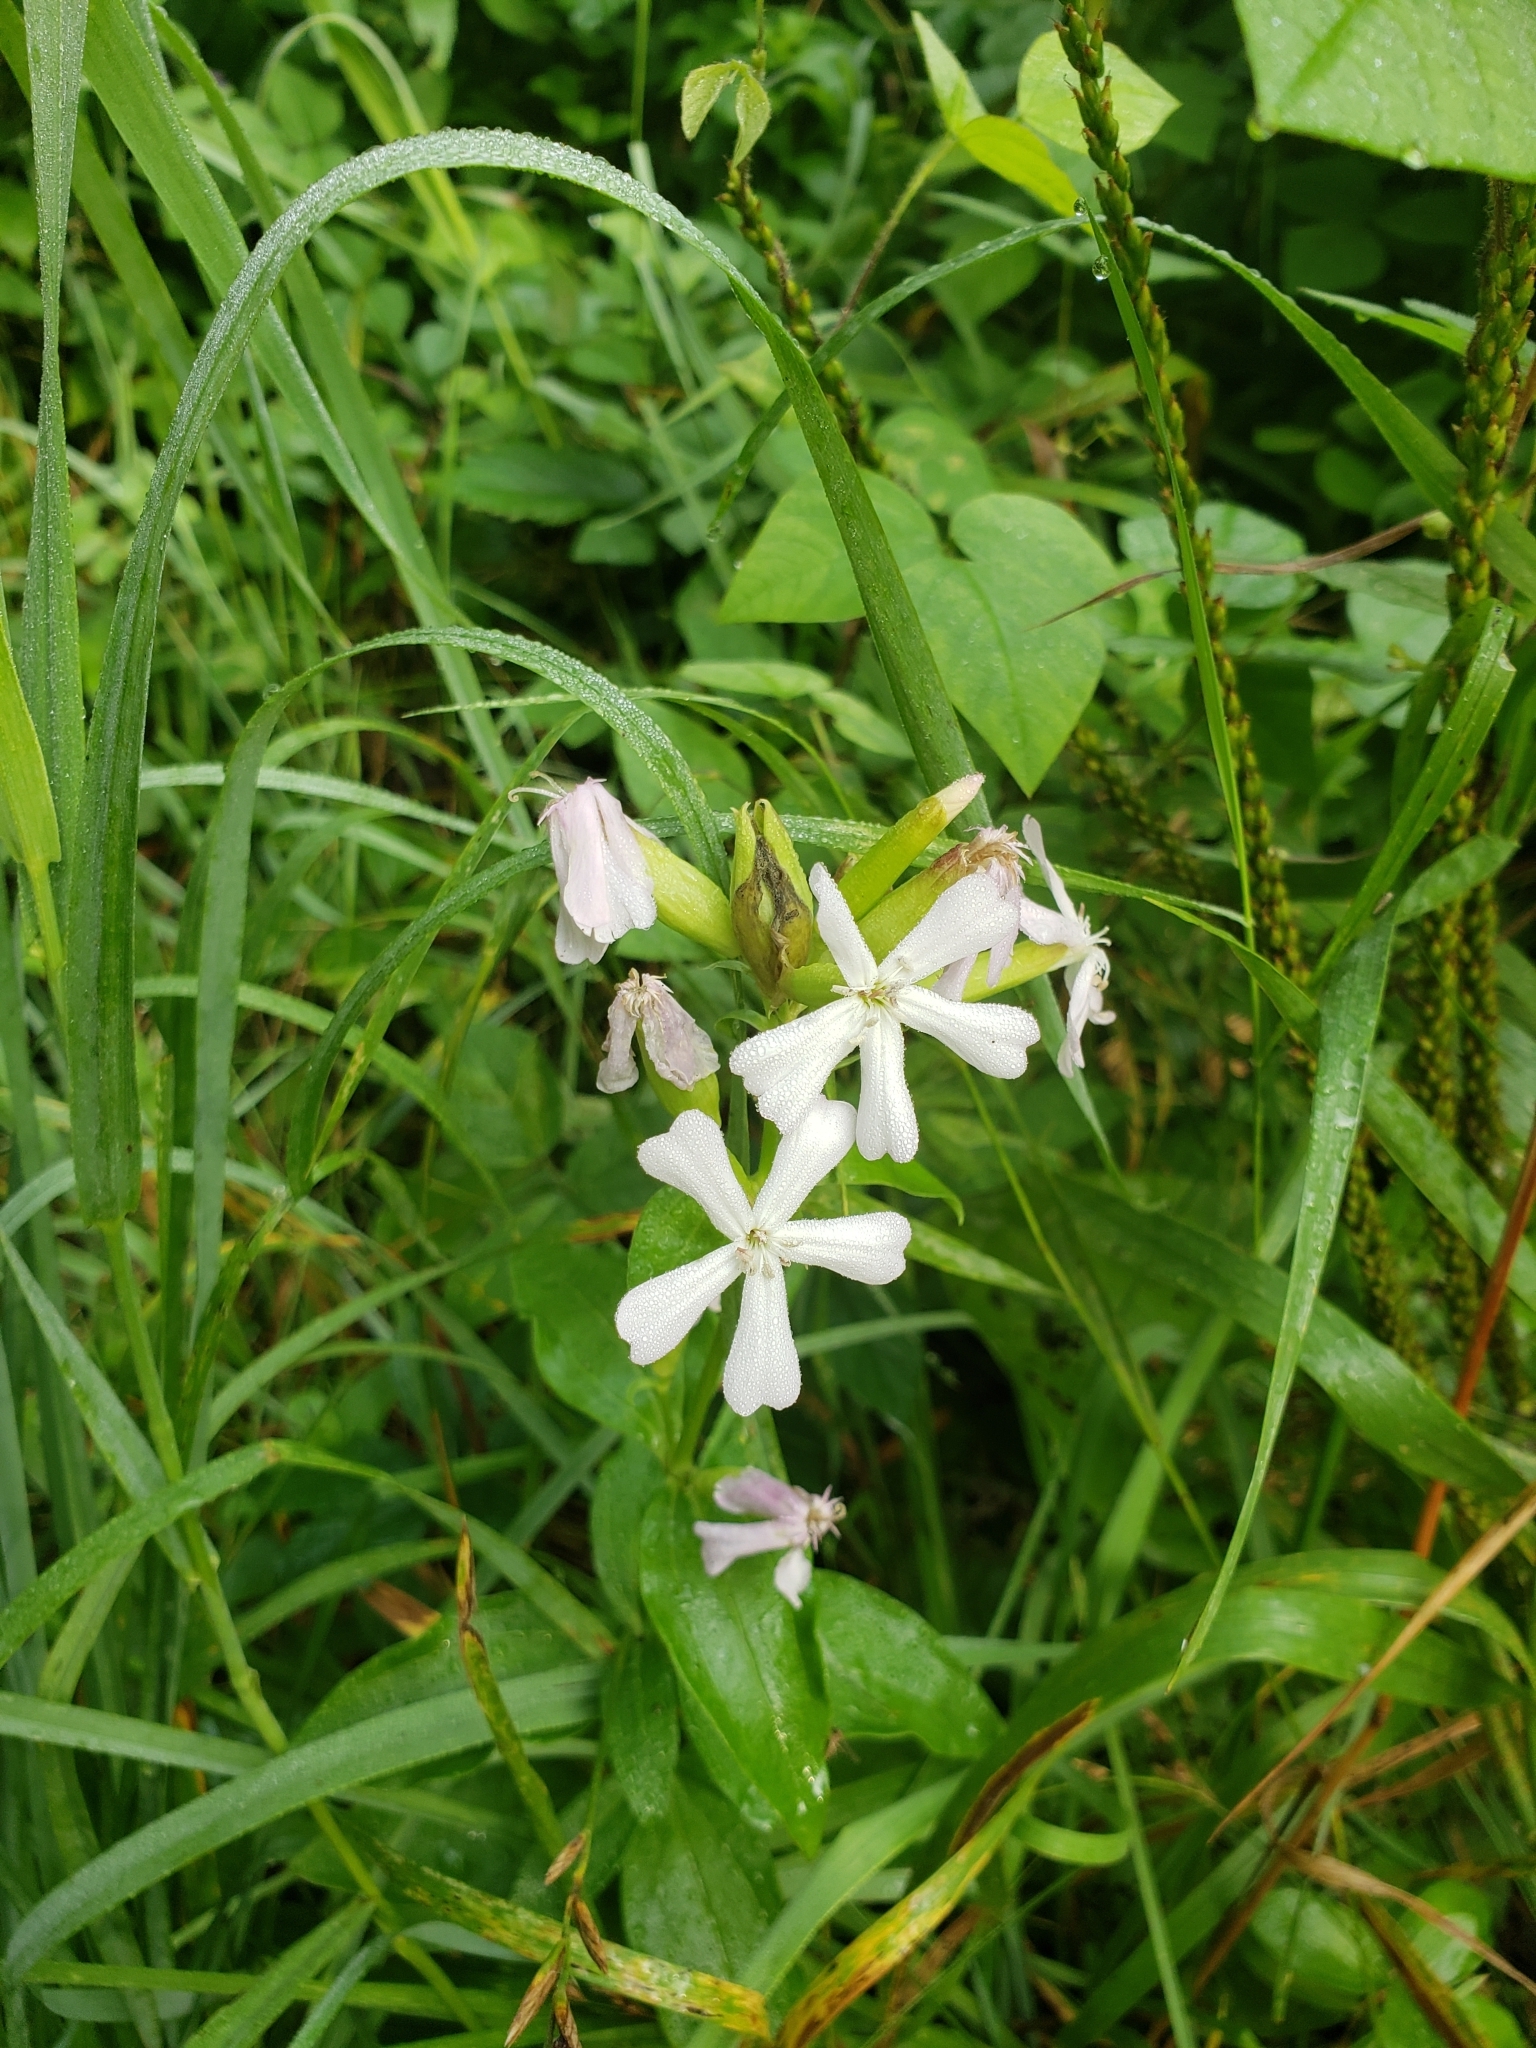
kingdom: Plantae
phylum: Tracheophyta
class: Magnoliopsida
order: Caryophyllales
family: Caryophyllaceae
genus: Saponaria
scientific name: Saponaria officinalis
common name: Soapwort
